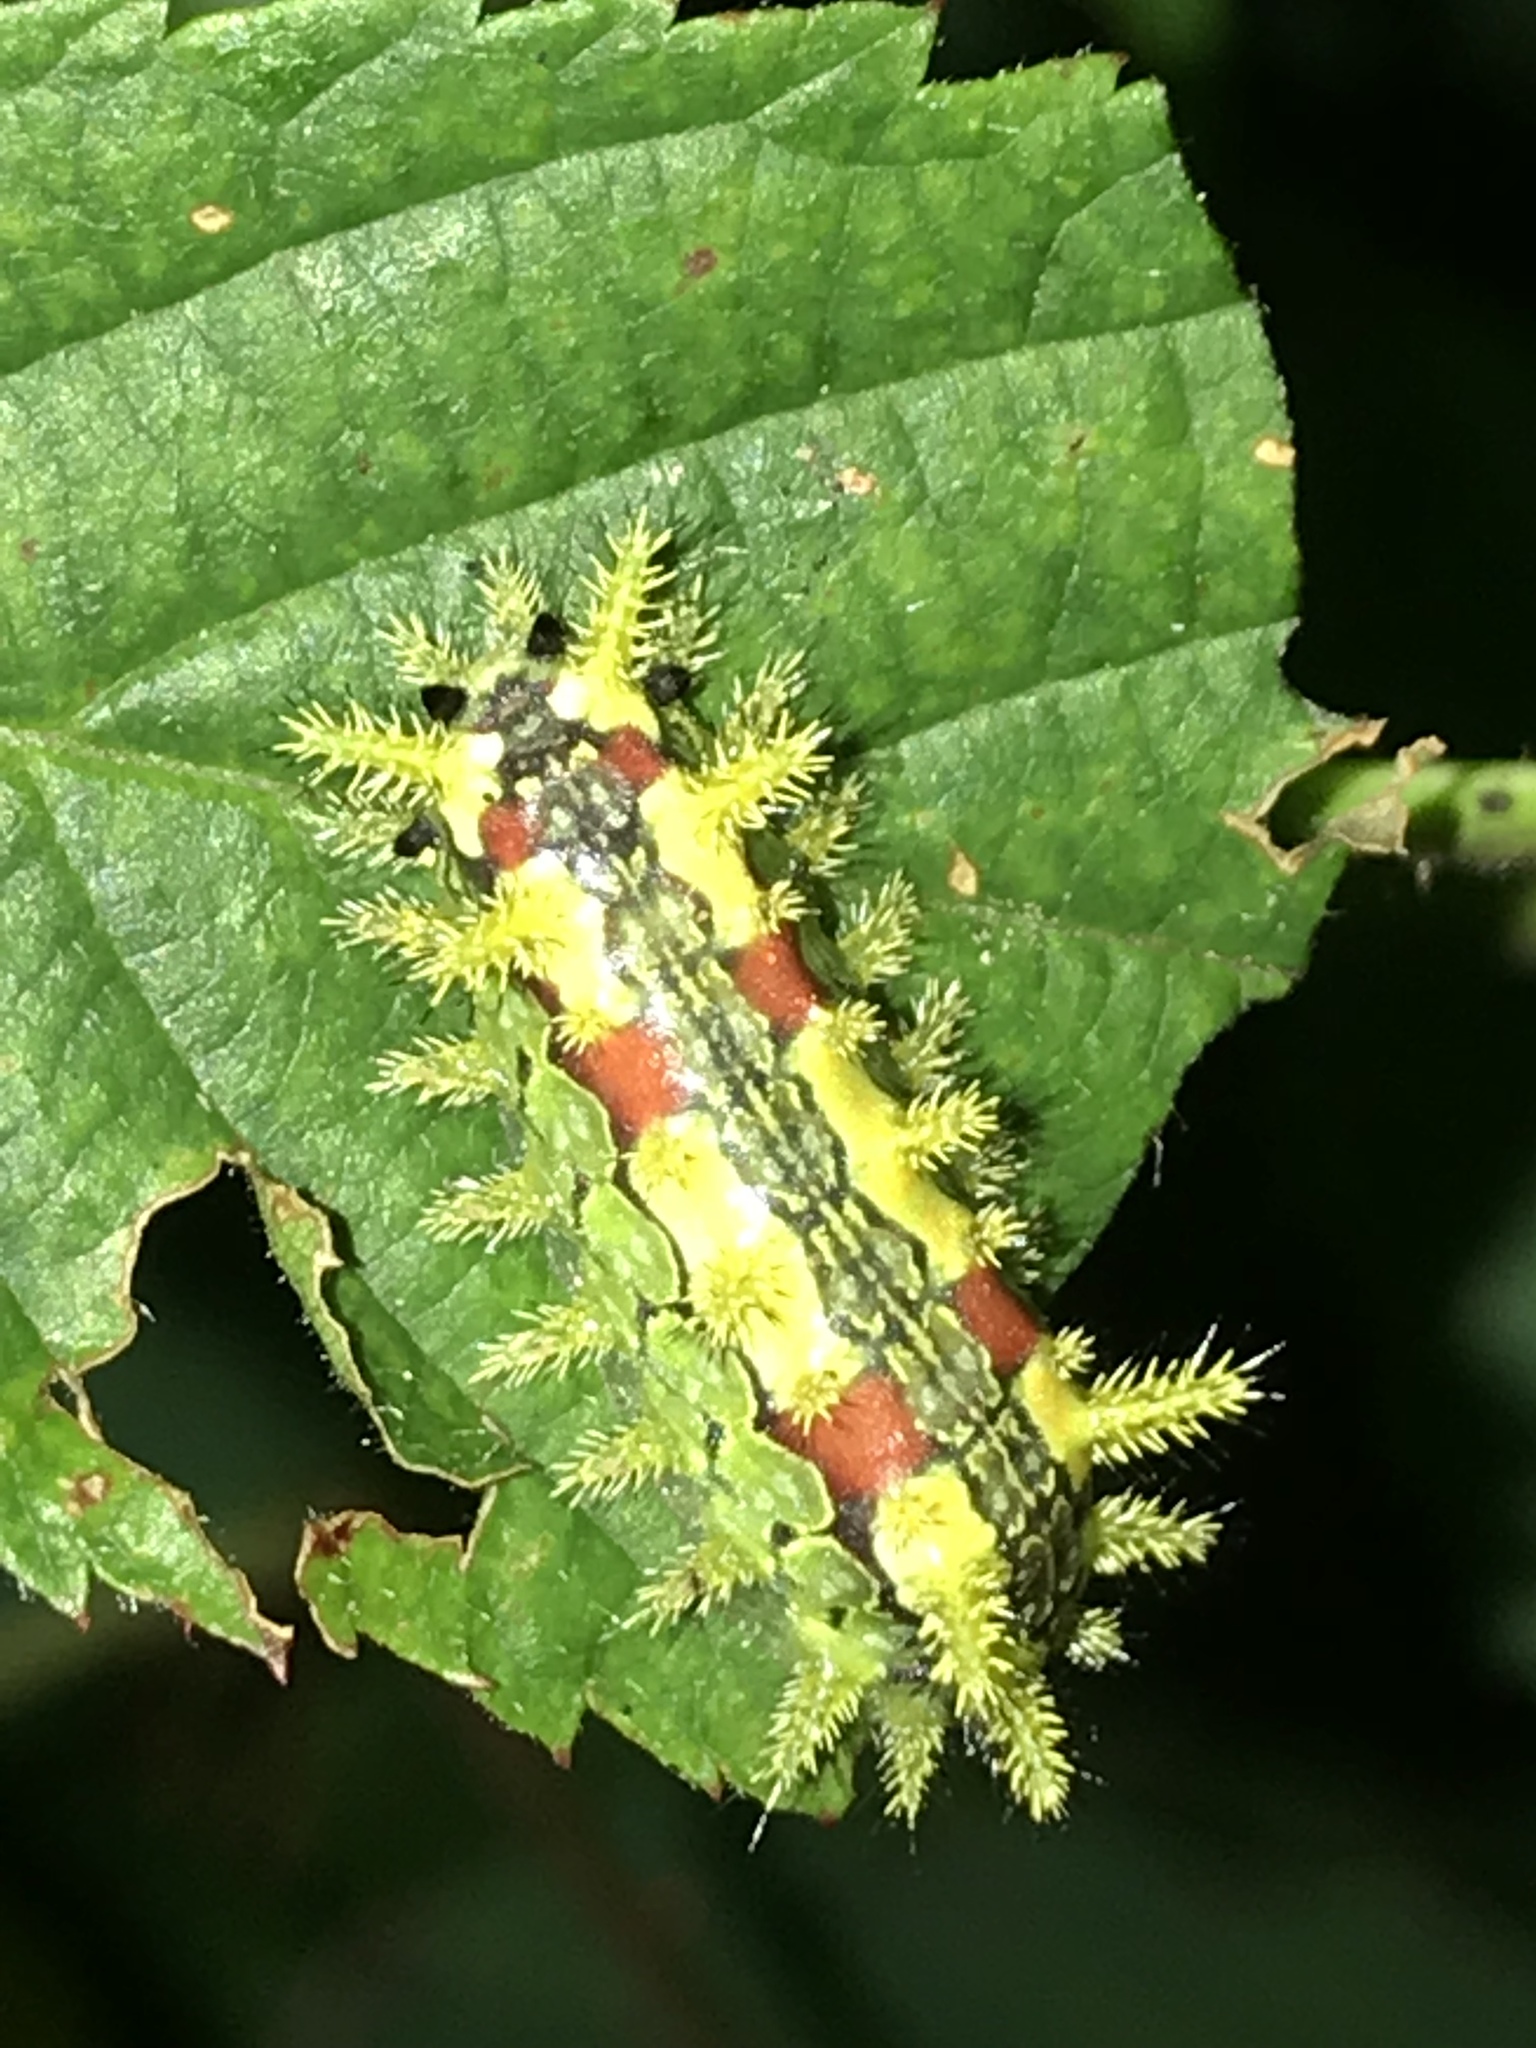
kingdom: Animalia
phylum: Arthropoda
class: Insecta
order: Lepidoptera
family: Limacodidae
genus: Euclea
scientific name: Euclea delphinii
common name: Spiny oak-slug moth
